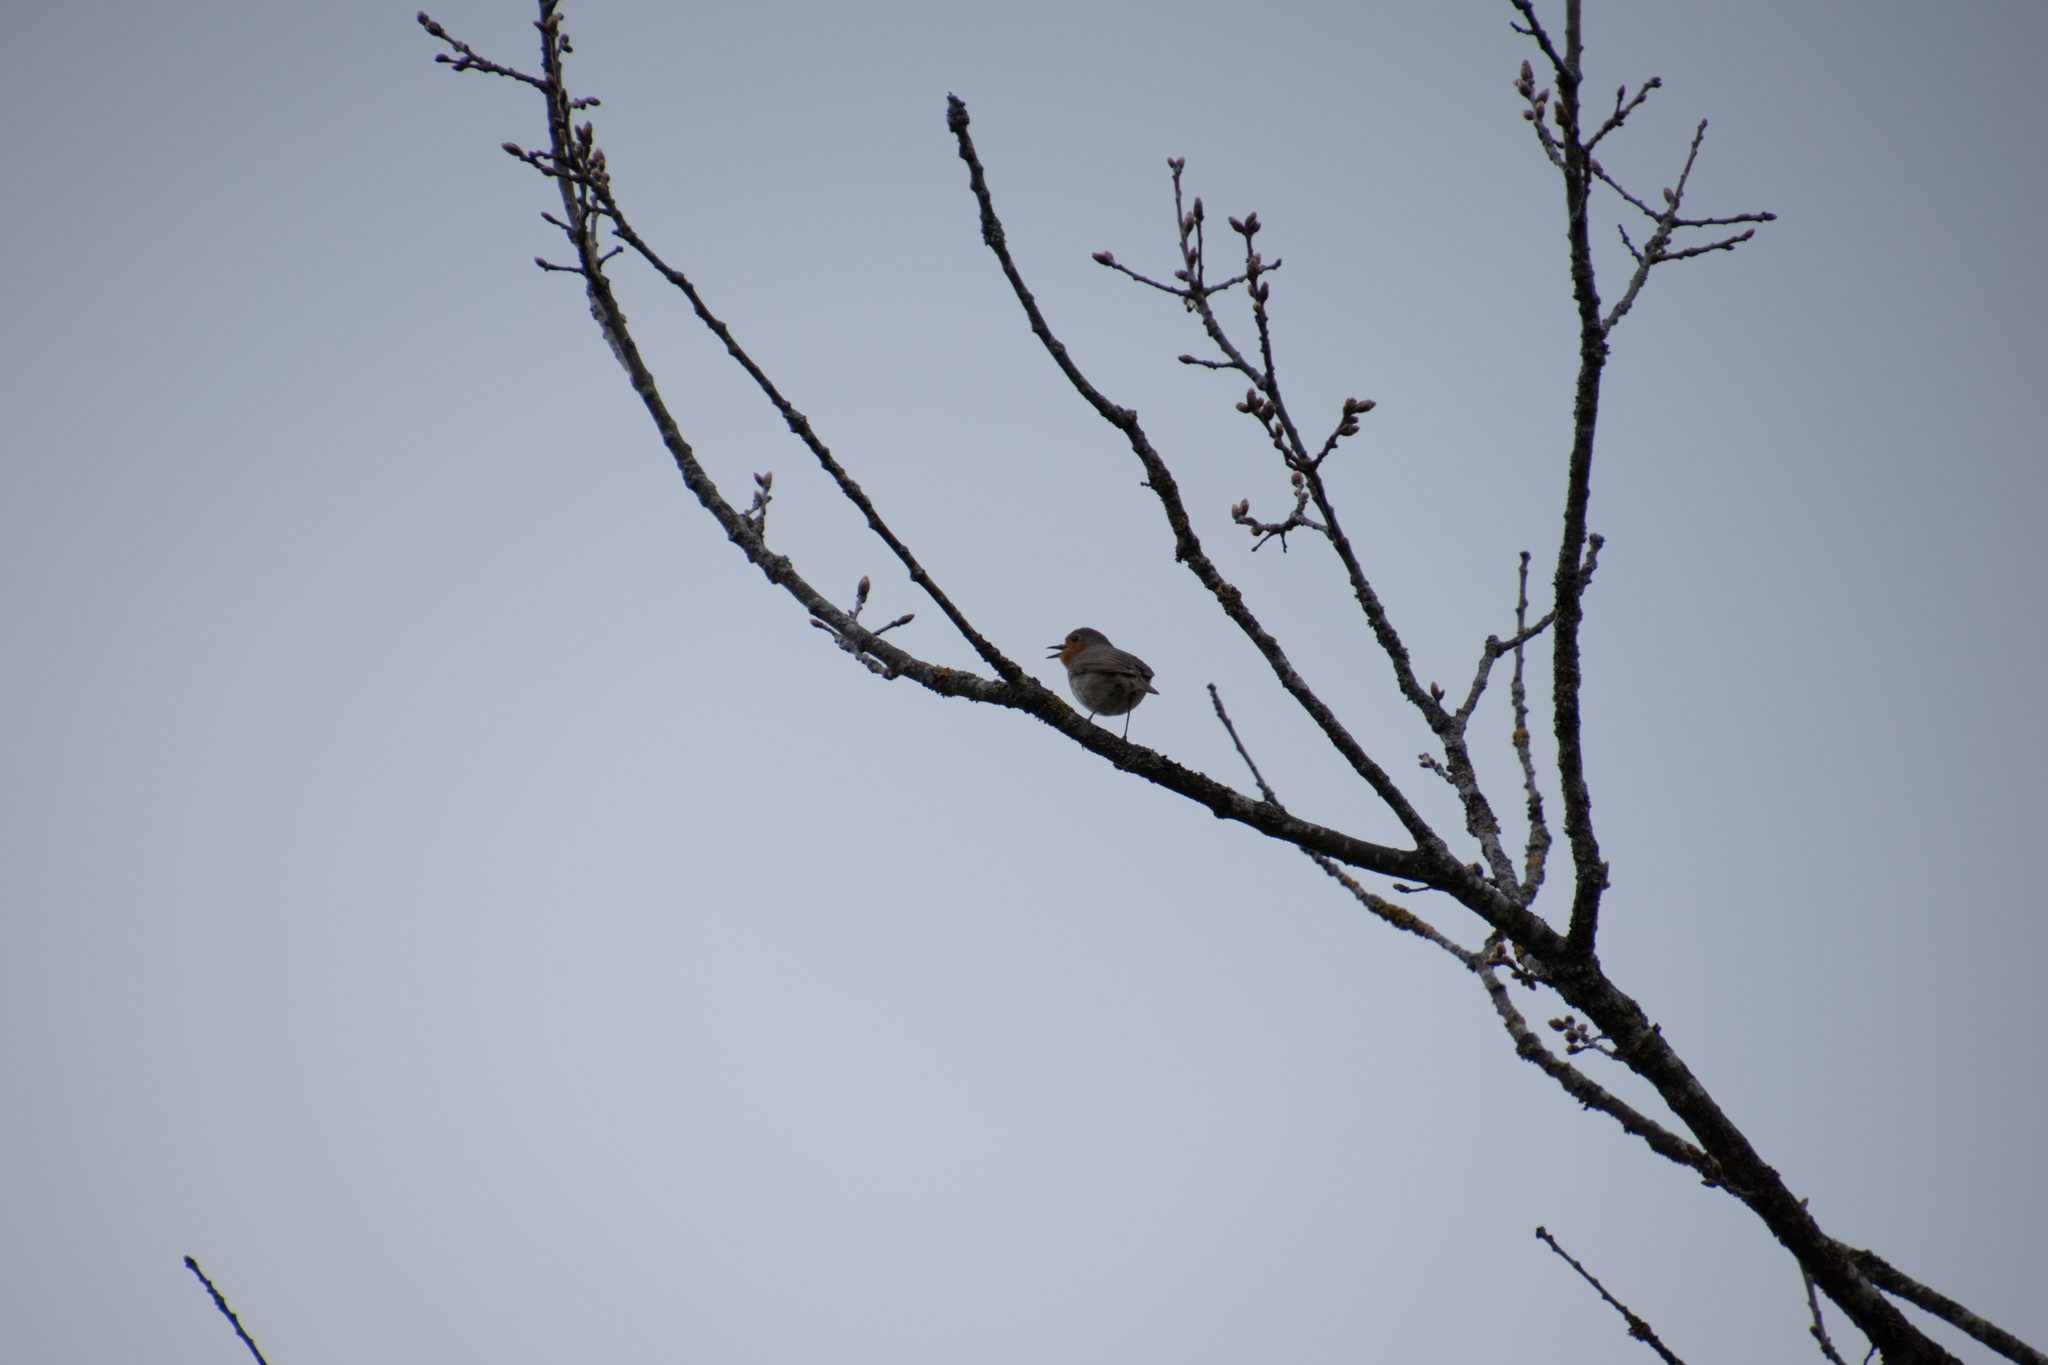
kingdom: Animalia
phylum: Chordata
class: Aves
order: Passeriformes
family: Muscicapidae
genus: Erithacus
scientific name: Erithacus rubecula
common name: European robin
